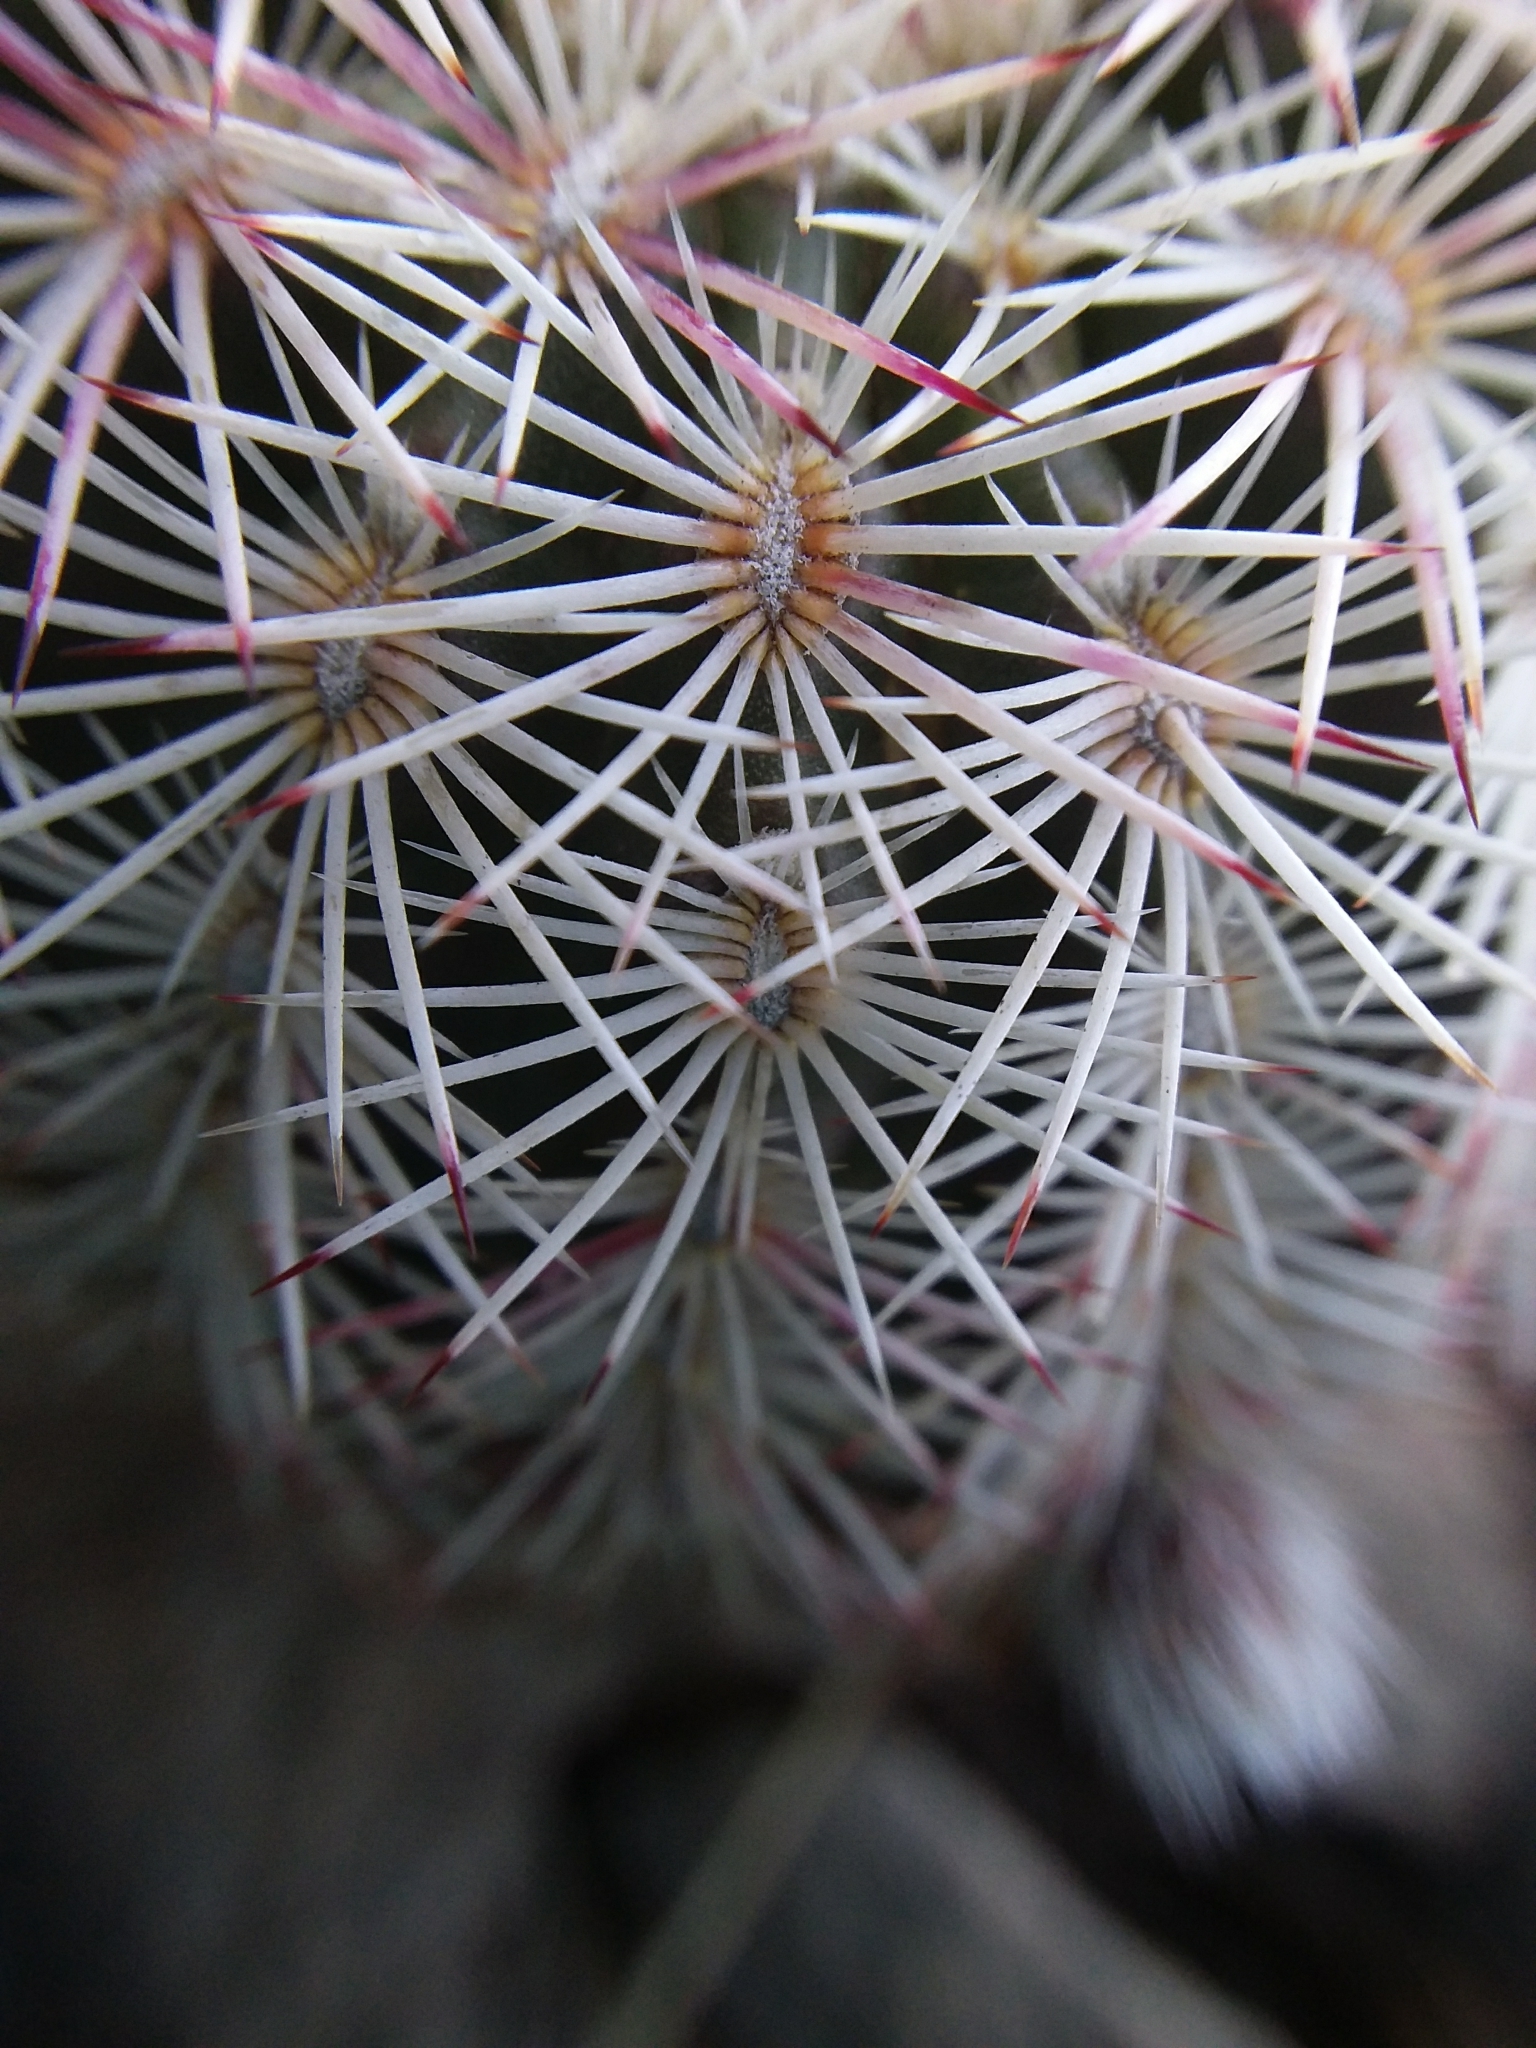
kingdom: Plantae
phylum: Tracheophyta
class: Magnoliopsida
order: Caryophyllales
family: Cactaceae
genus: Echinocereus
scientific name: Echinocereus viridiflorus
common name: Nylon hedgehog cactus
